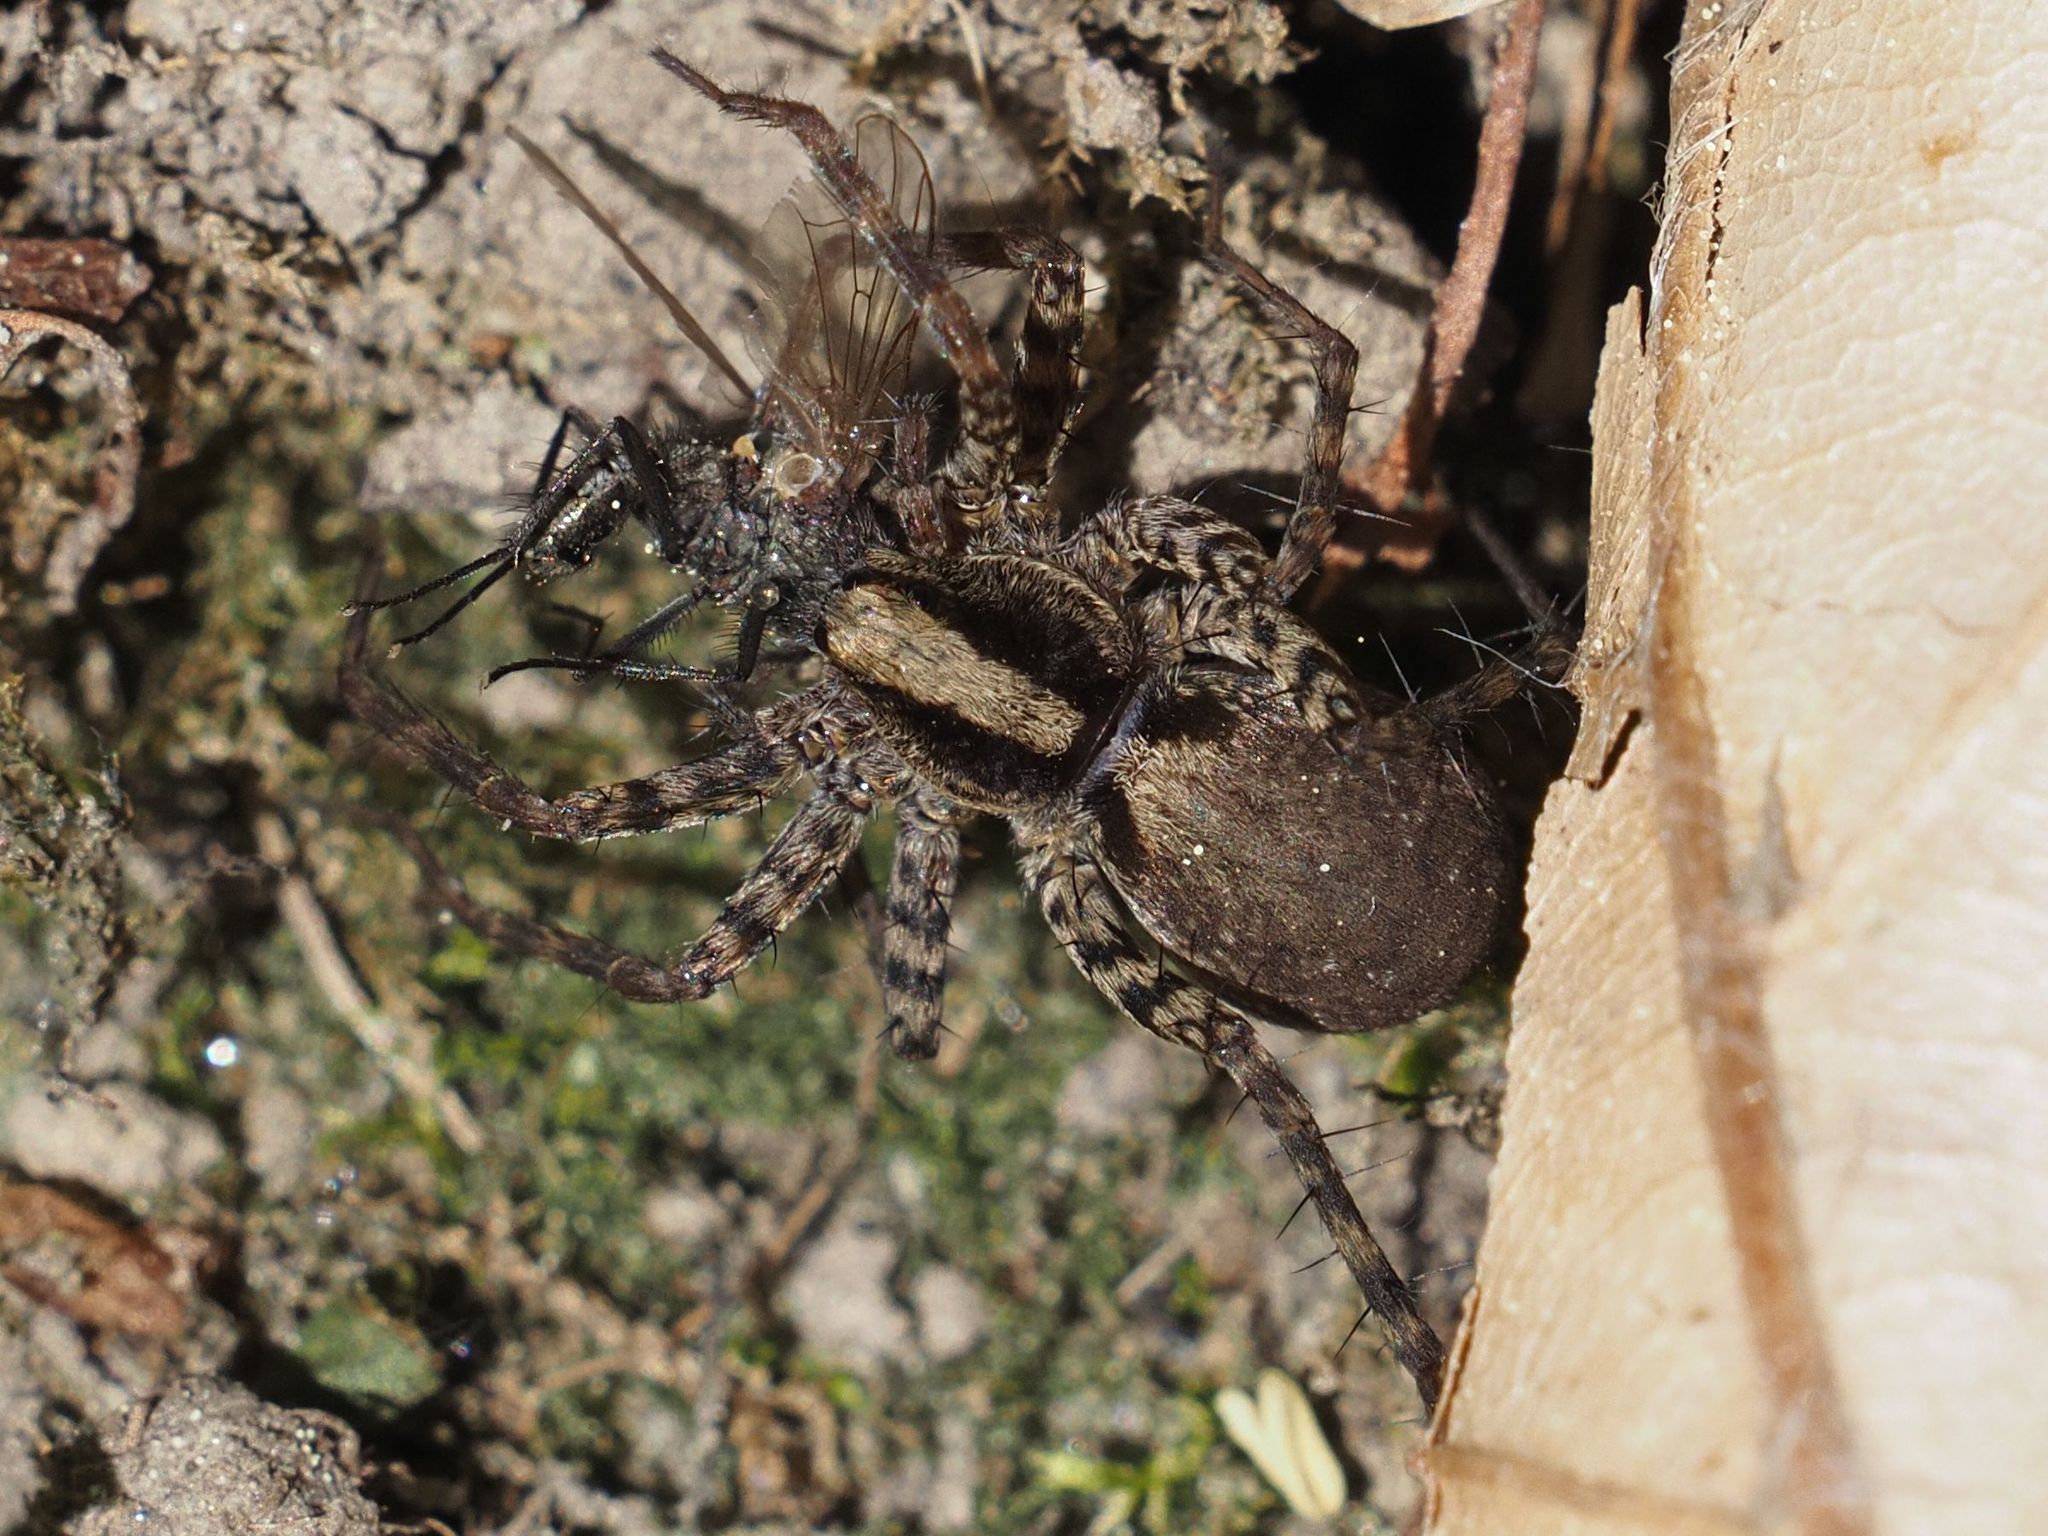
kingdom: Animalia
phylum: Arthropoda
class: Arachnida
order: Araneae
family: Lycosidae
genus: Pardosa
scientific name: Pardosa
